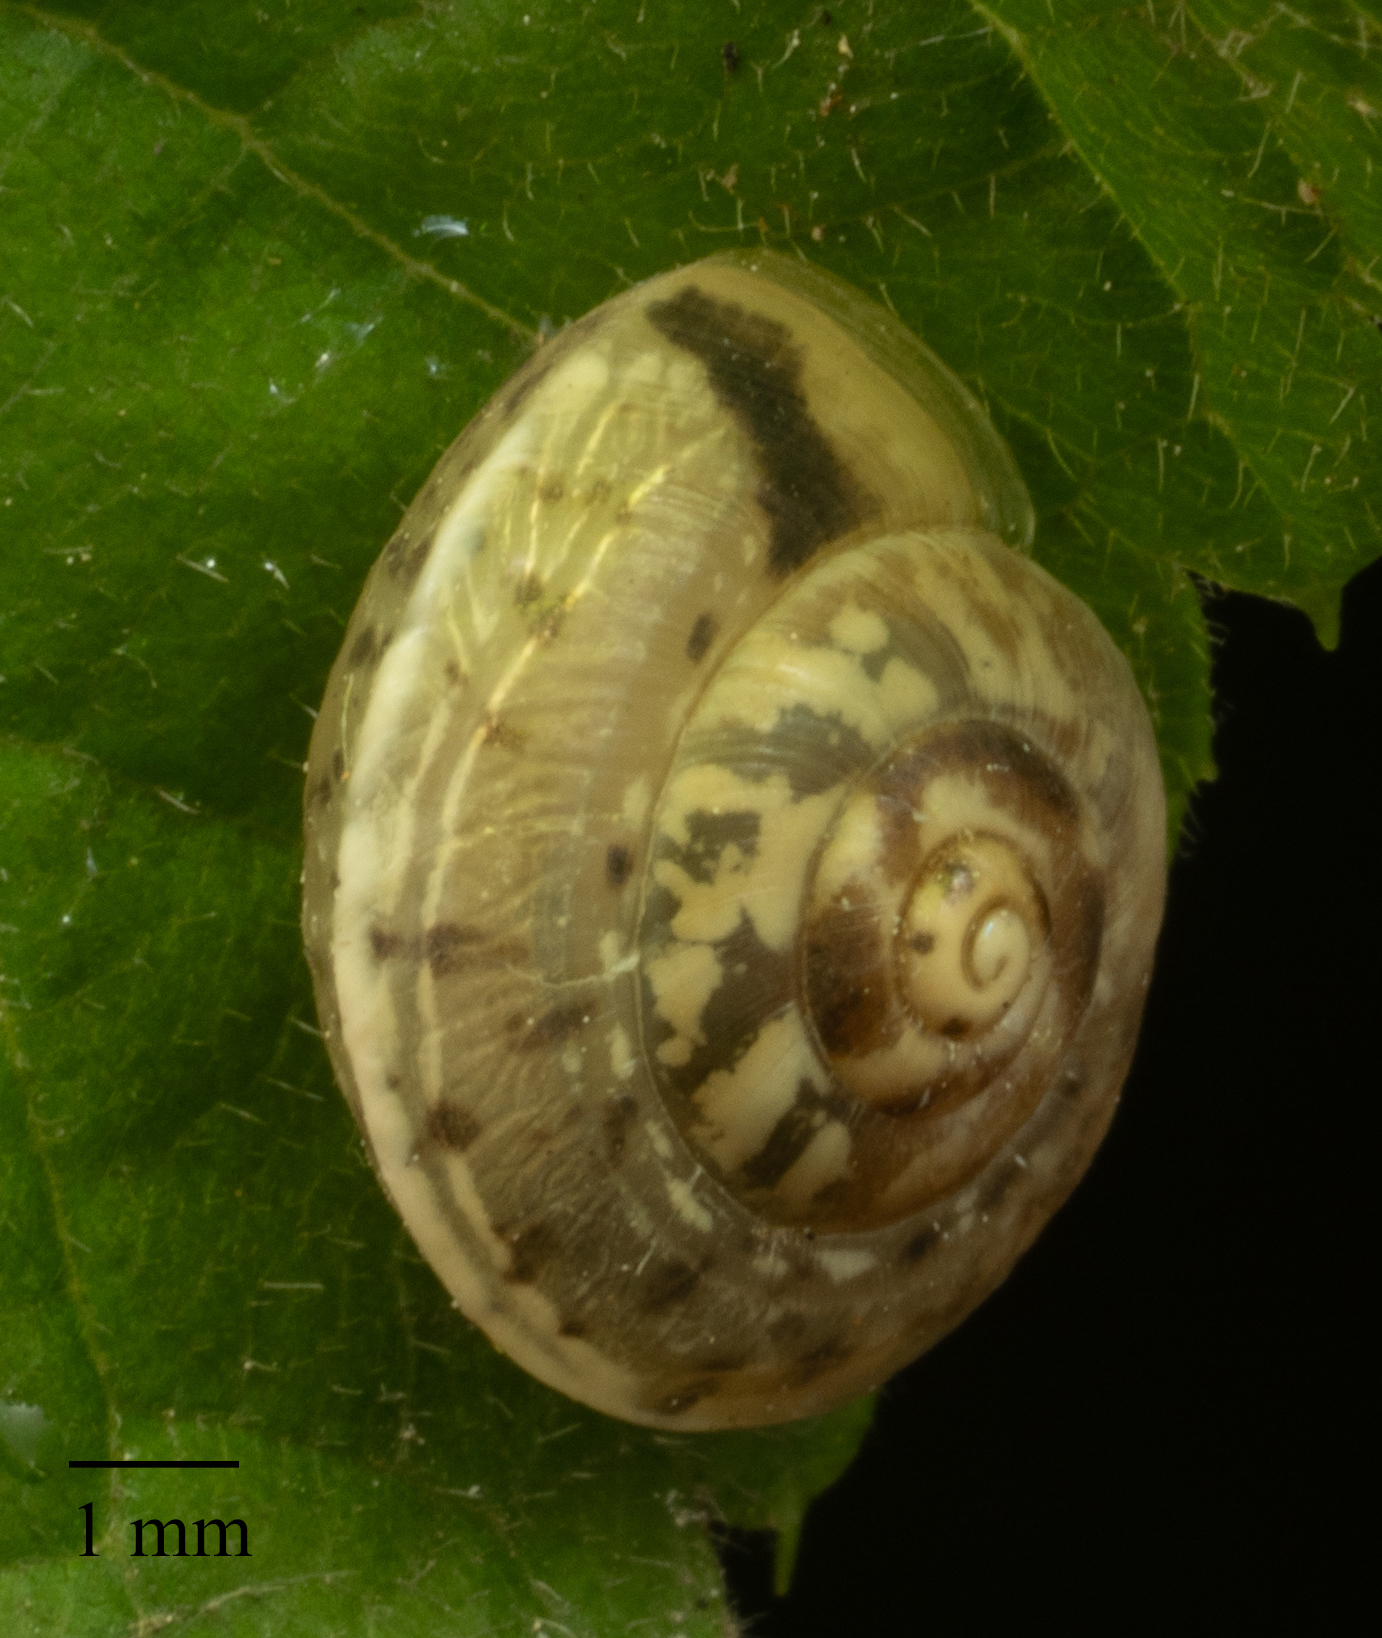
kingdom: Animalia
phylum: Mollusca
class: Gastropoda
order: Stylommatophora
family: Hygromiidae
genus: Hygromia
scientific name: Hygromia cinctella
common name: Girdled snail
